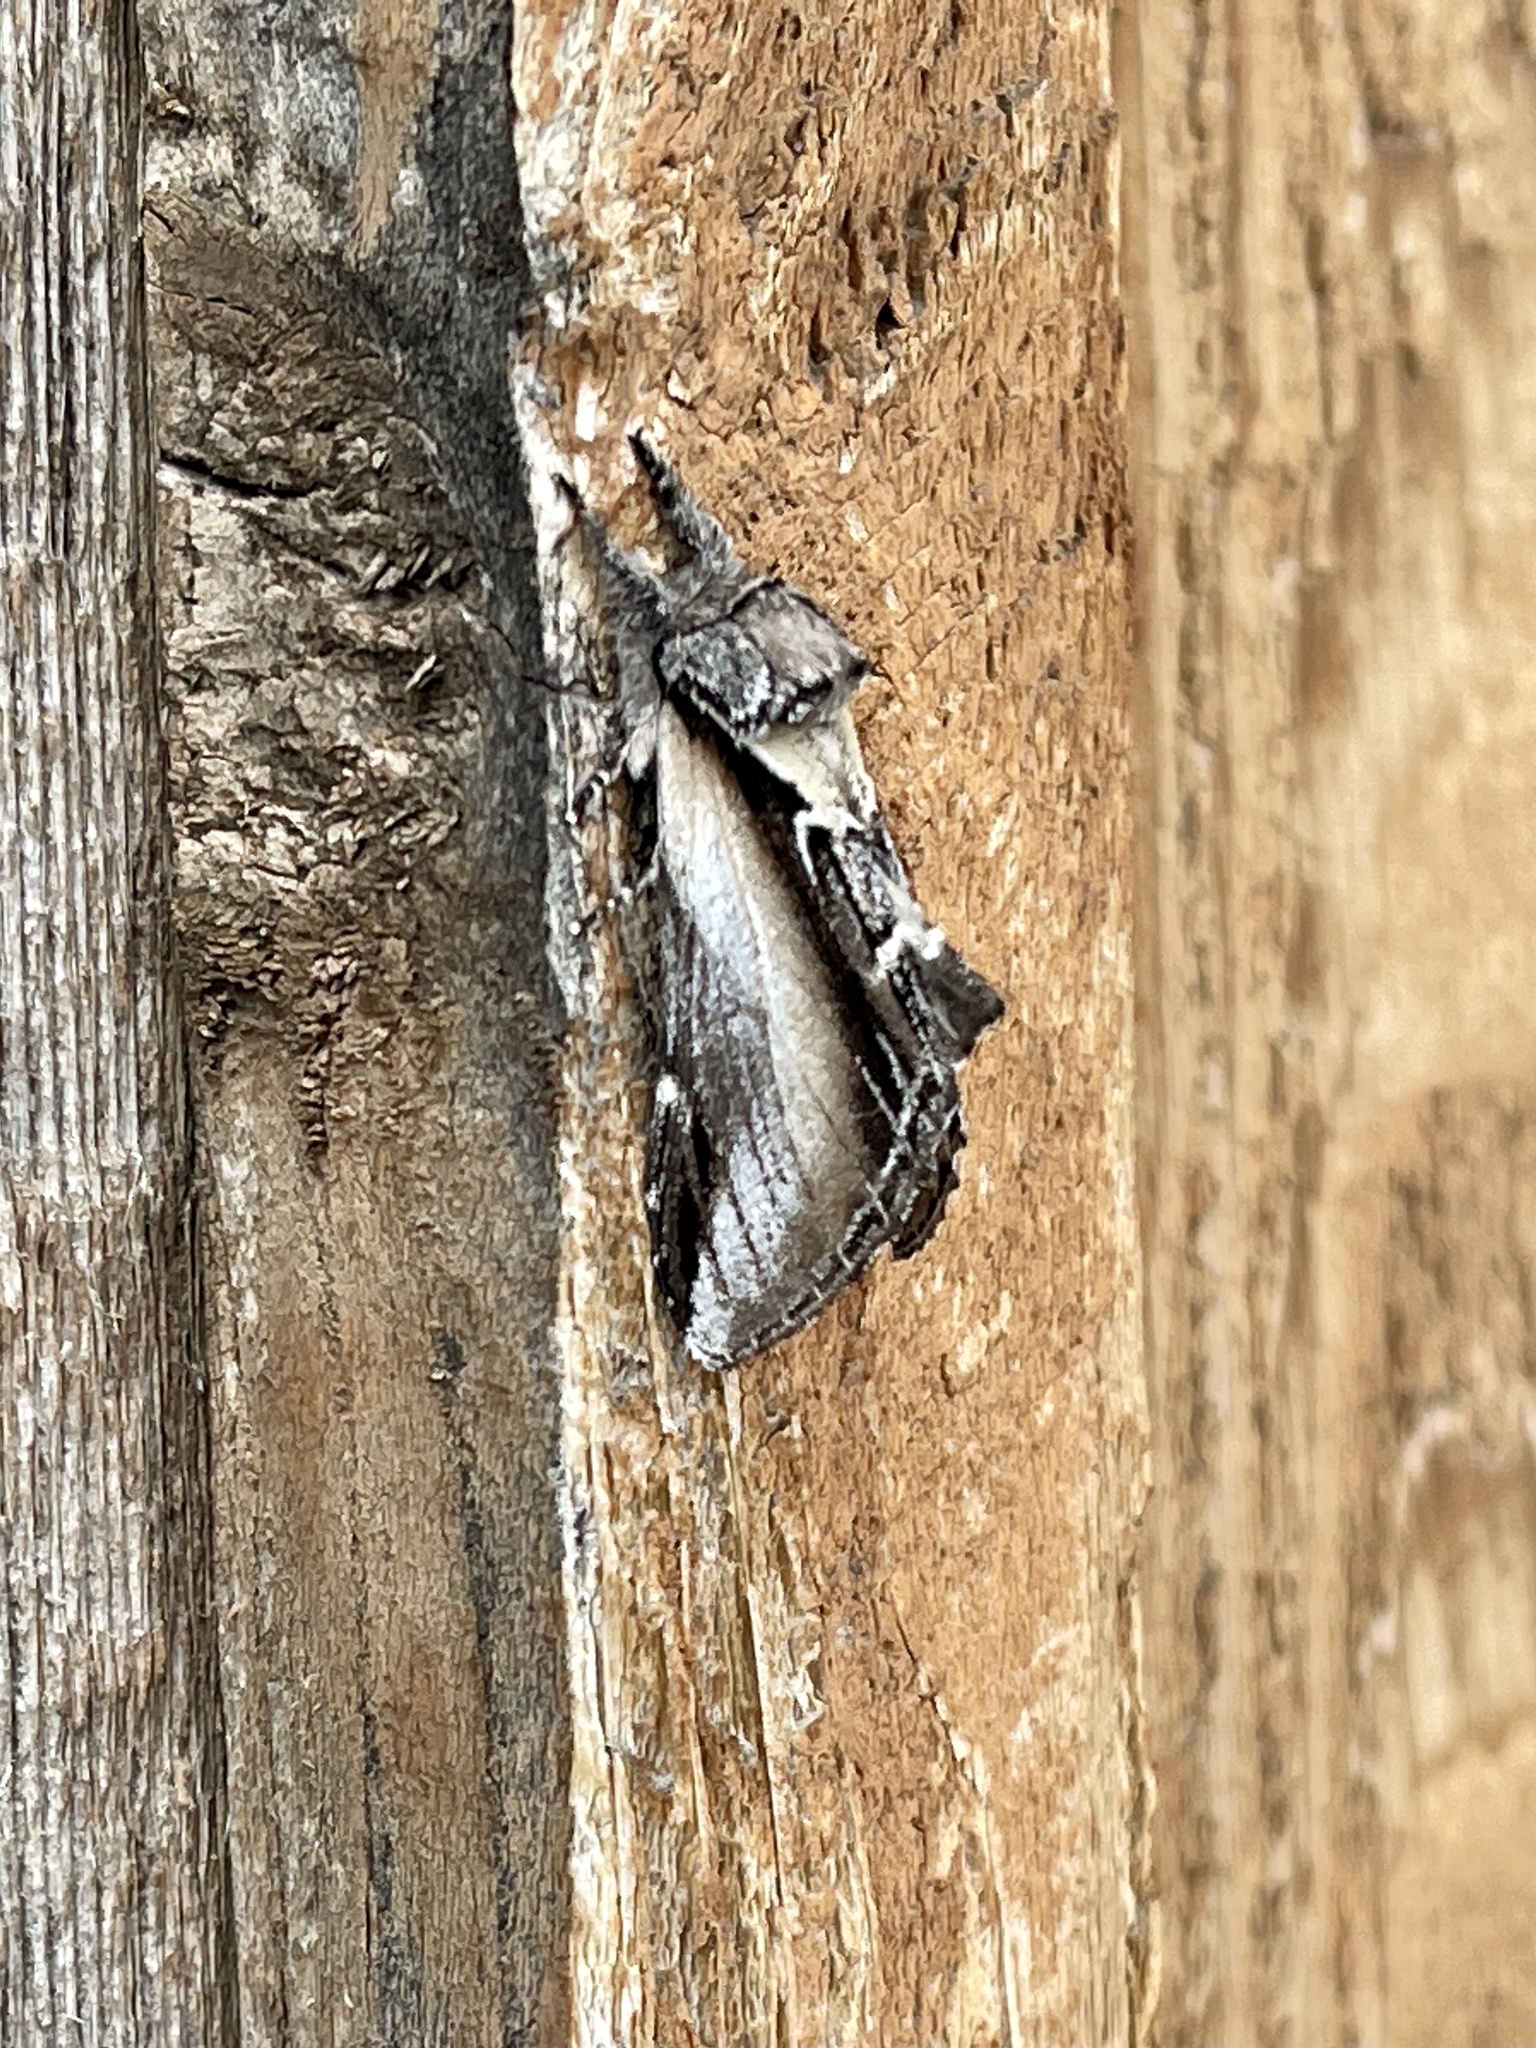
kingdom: Animalia
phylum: Arthropoda
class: Insecta
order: Lepidoptera
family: Notodontidae
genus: Pheosia
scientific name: Pheosia rimosa
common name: Black-rimmed prominent
